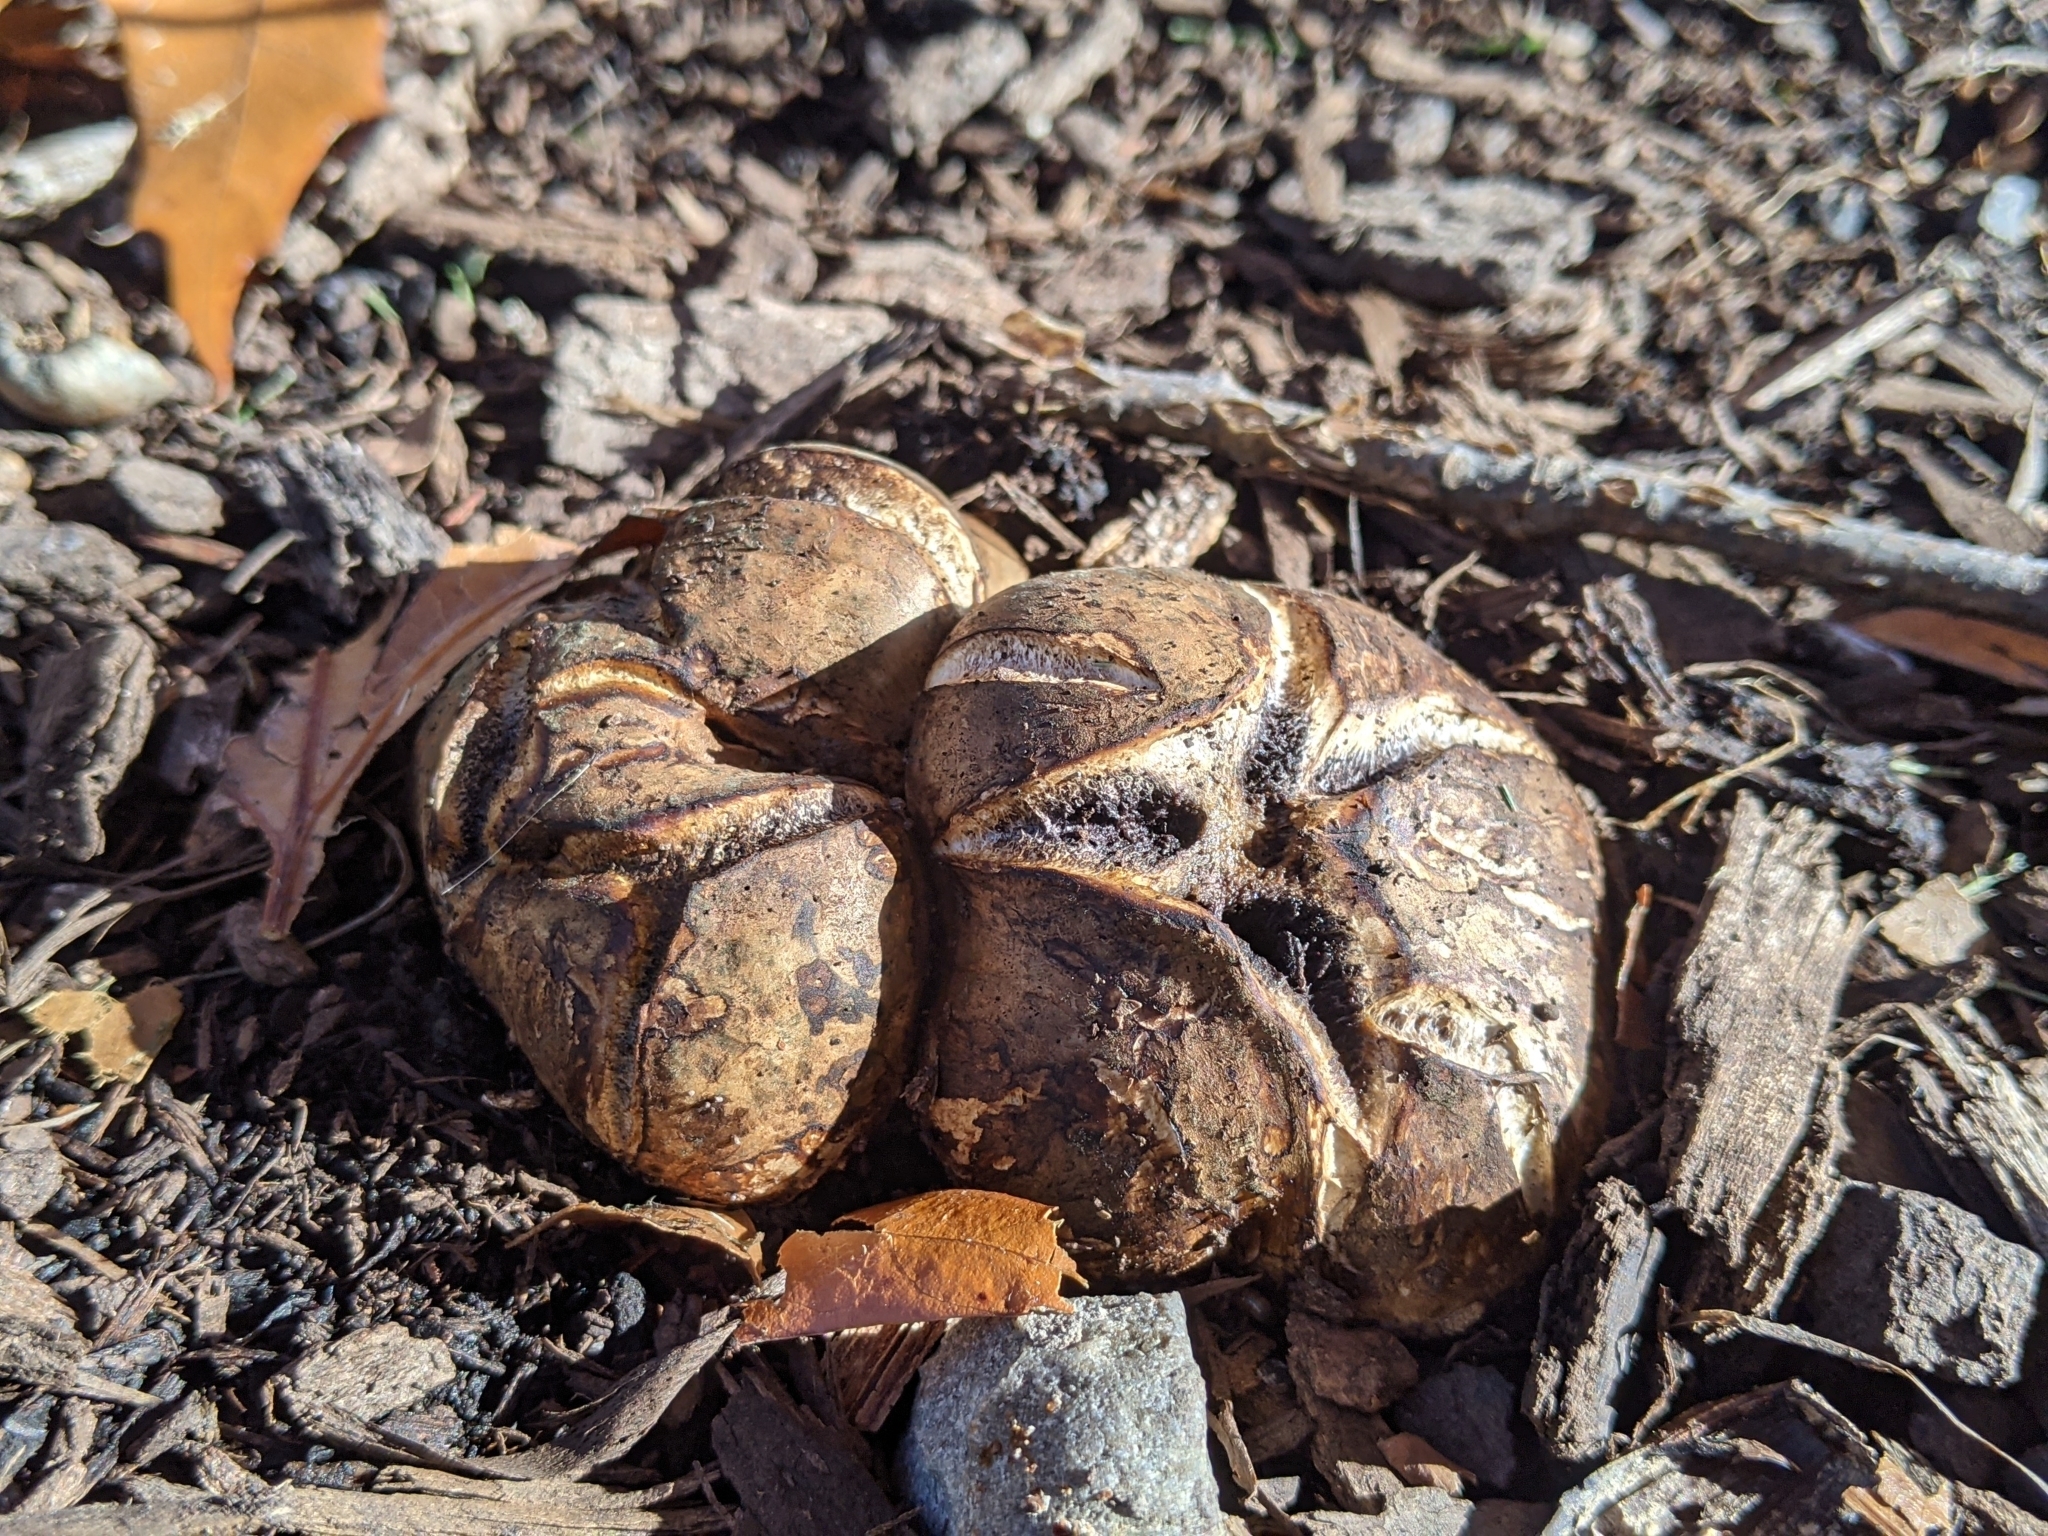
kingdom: Fungi
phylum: Basidiomycota
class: Agaricomycetes
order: Boletales
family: Sclerodermataceae
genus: Scleroderma
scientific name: Scleroderma cepa
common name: Onion earthball
